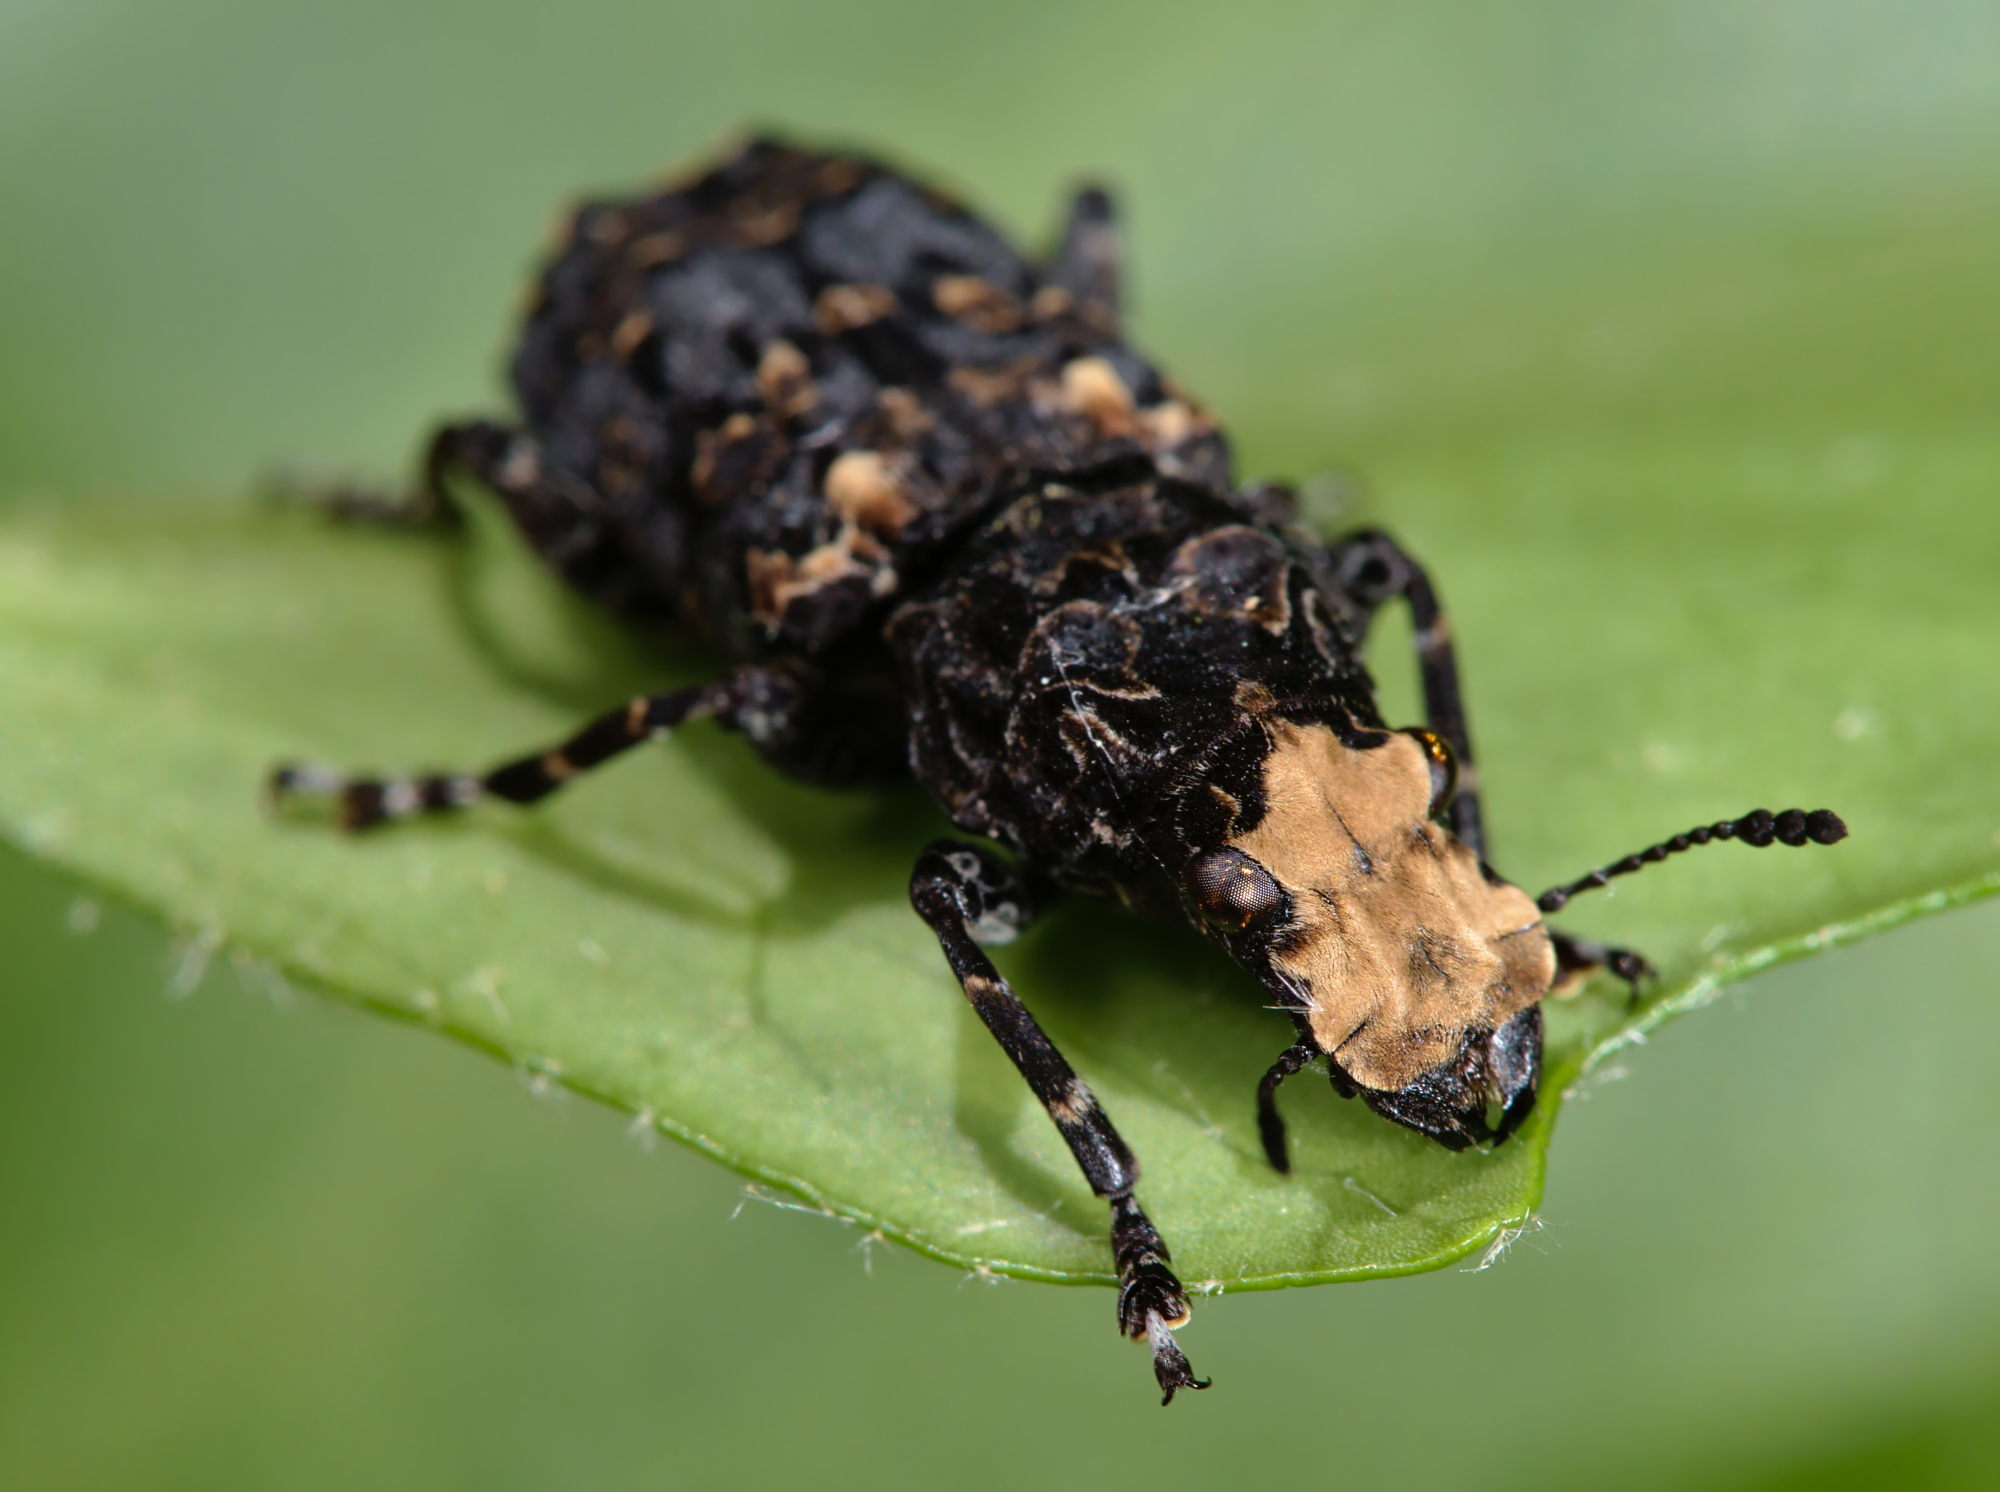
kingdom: Animalia
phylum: Arthropoda
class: Insecta
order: Coleoptera
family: Anthribidae
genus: Platyrhinus
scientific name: Platyrhinus resinosus
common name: Cramp-ball fungus weevil
